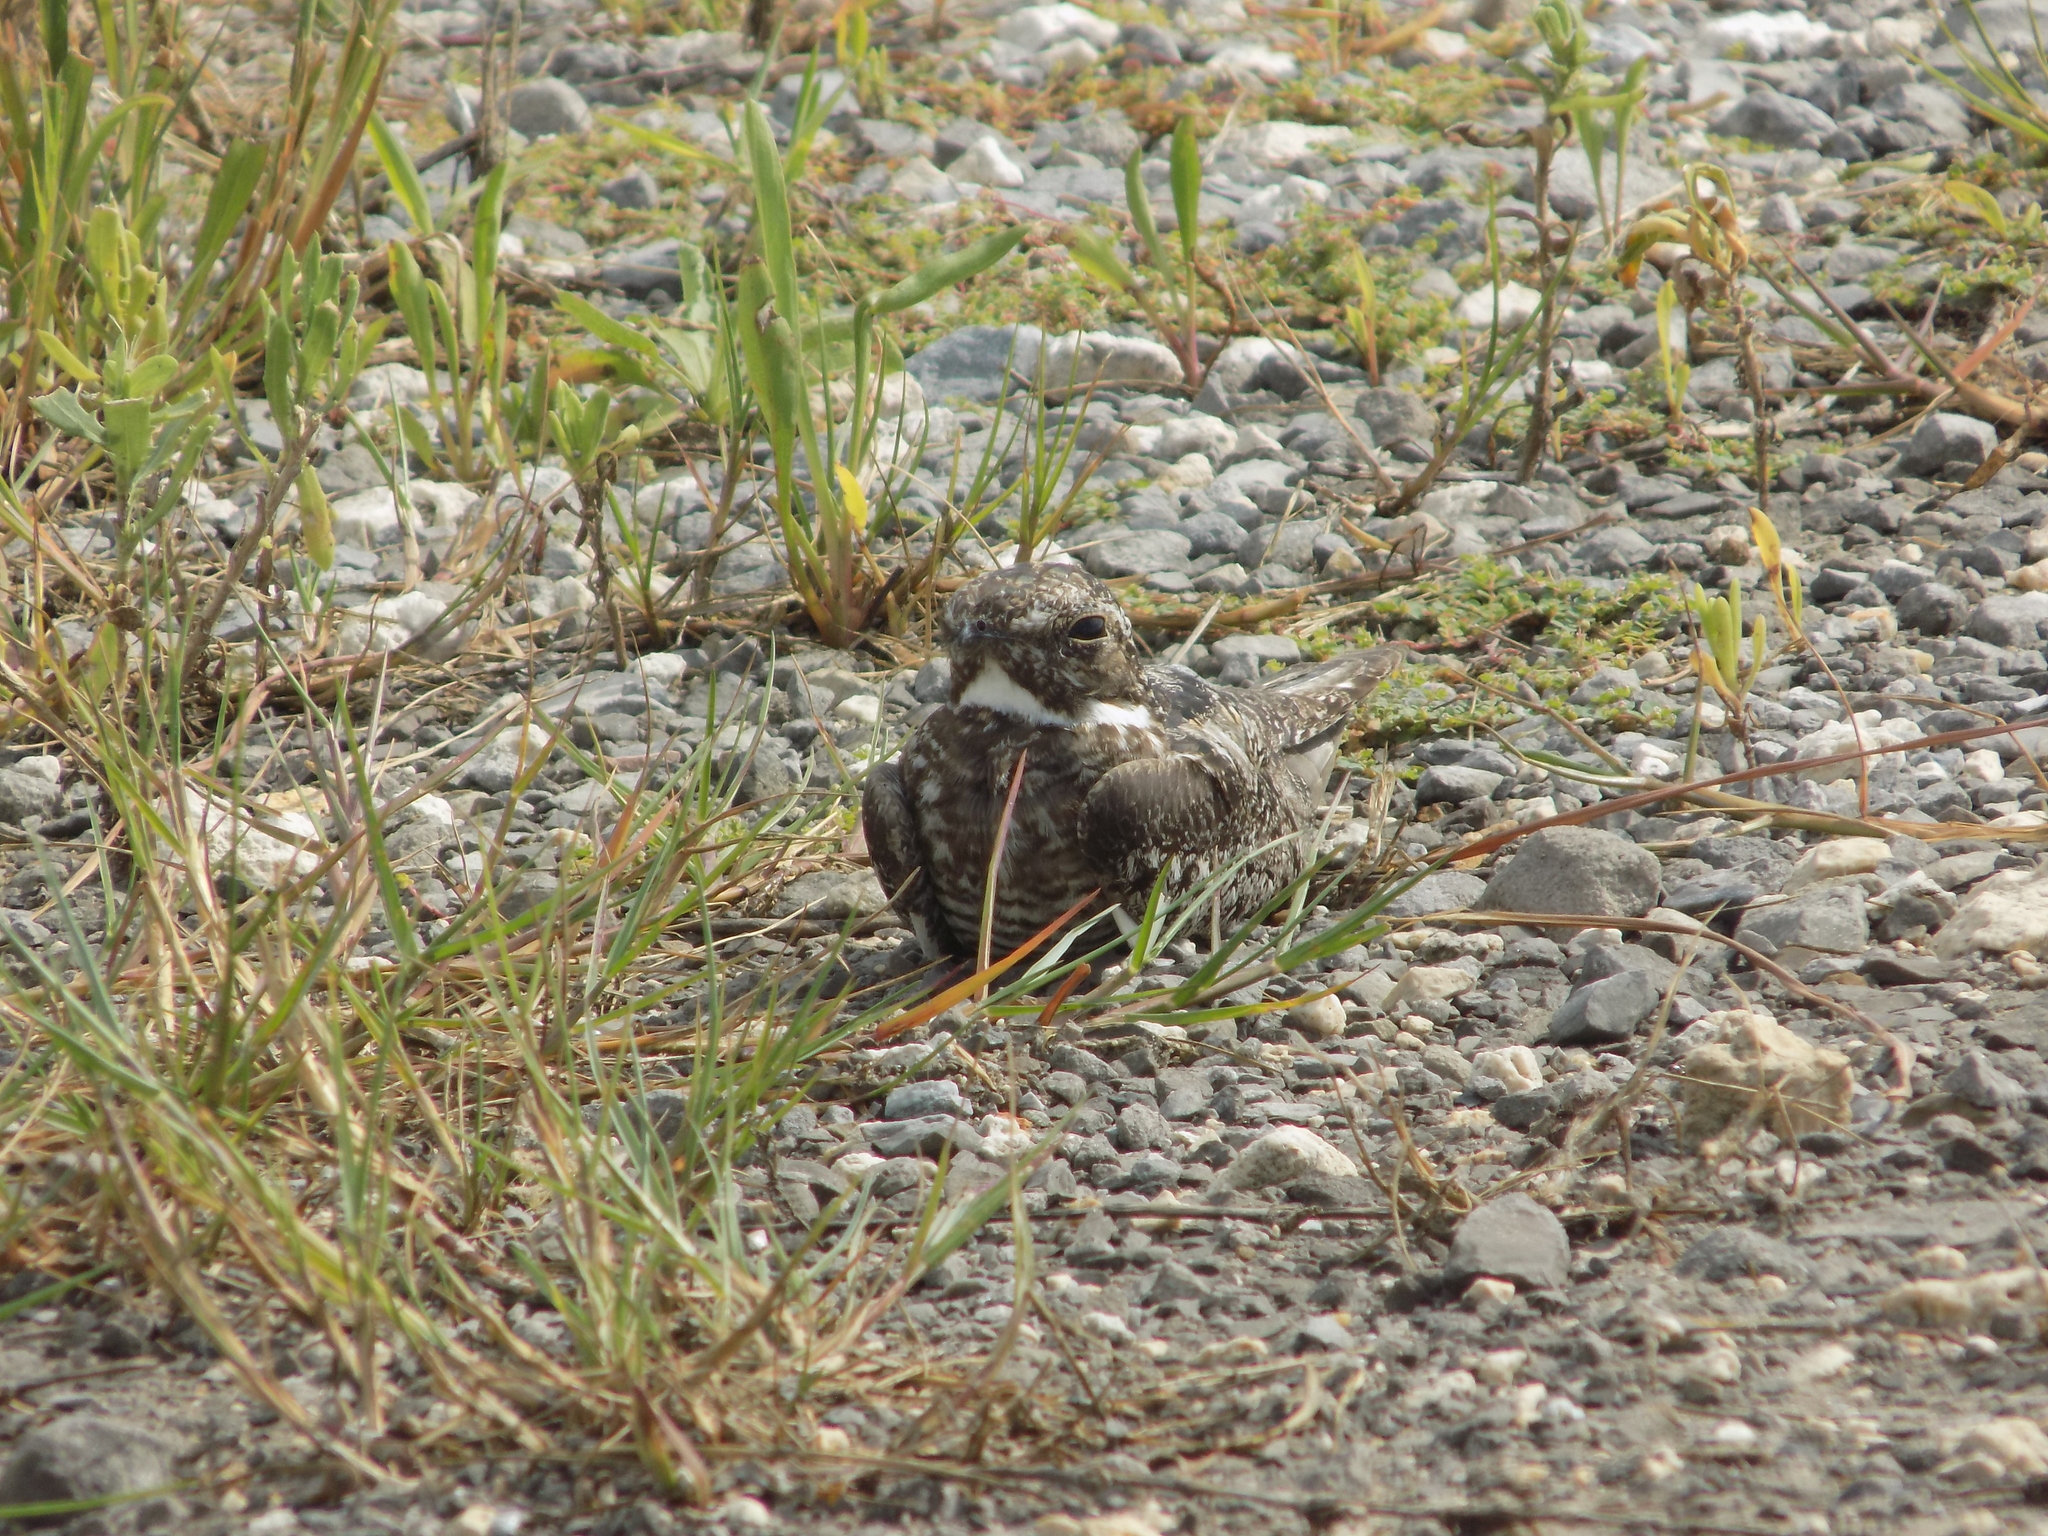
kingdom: Animalia
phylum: Chordata
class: Aves
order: Caprimulgiformes
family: Caprimulgidae
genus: Chordeiles
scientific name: Chordeiles minor
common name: Common nighthawk
